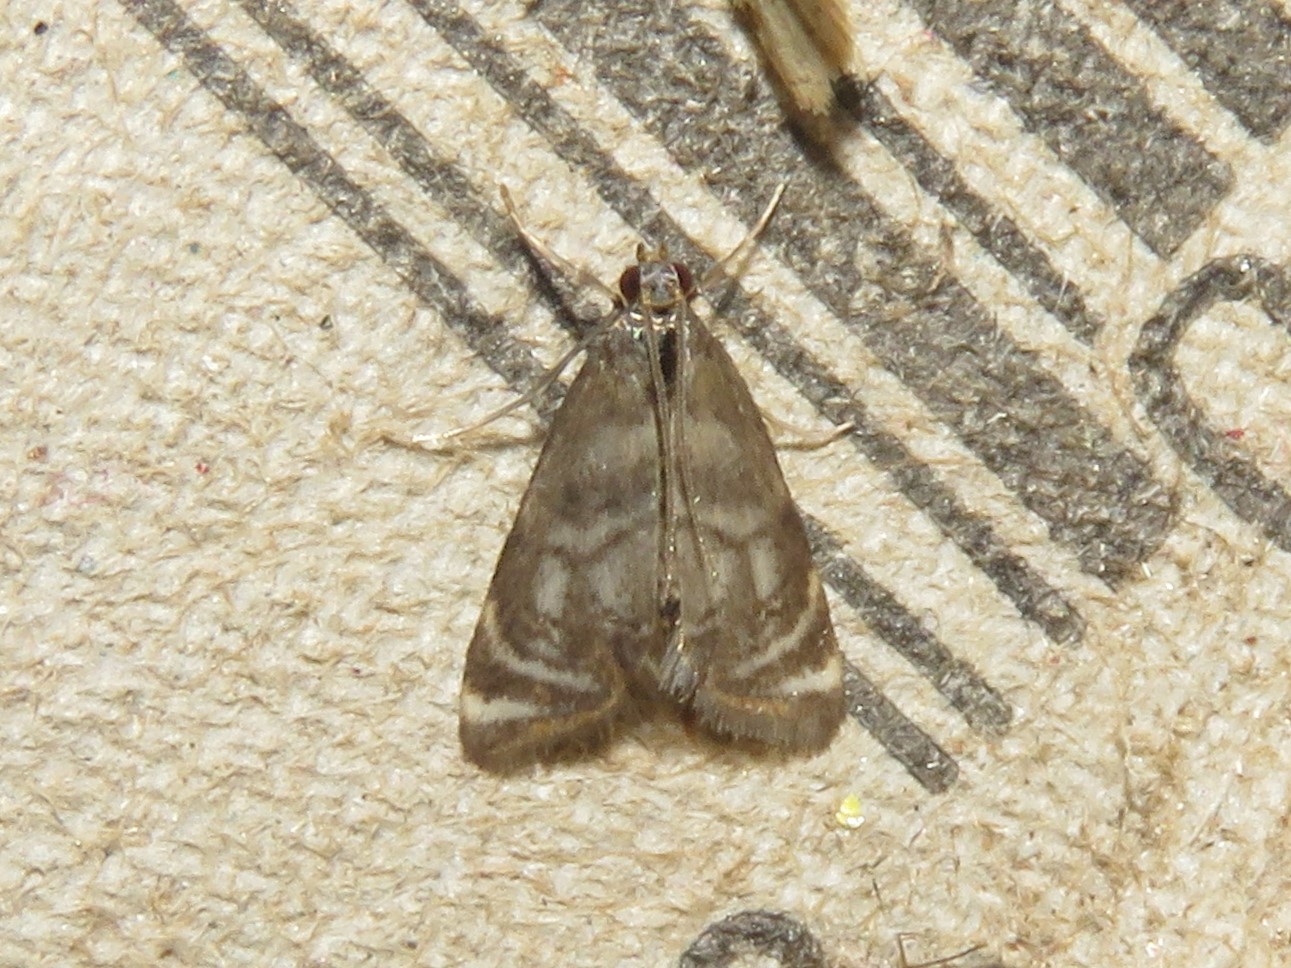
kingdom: Animalia
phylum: Arthropoda
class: Insecta
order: Lepidoptera
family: Crambidae
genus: Petrophila
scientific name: Petrophila canadensis
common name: Canadian petrophila
